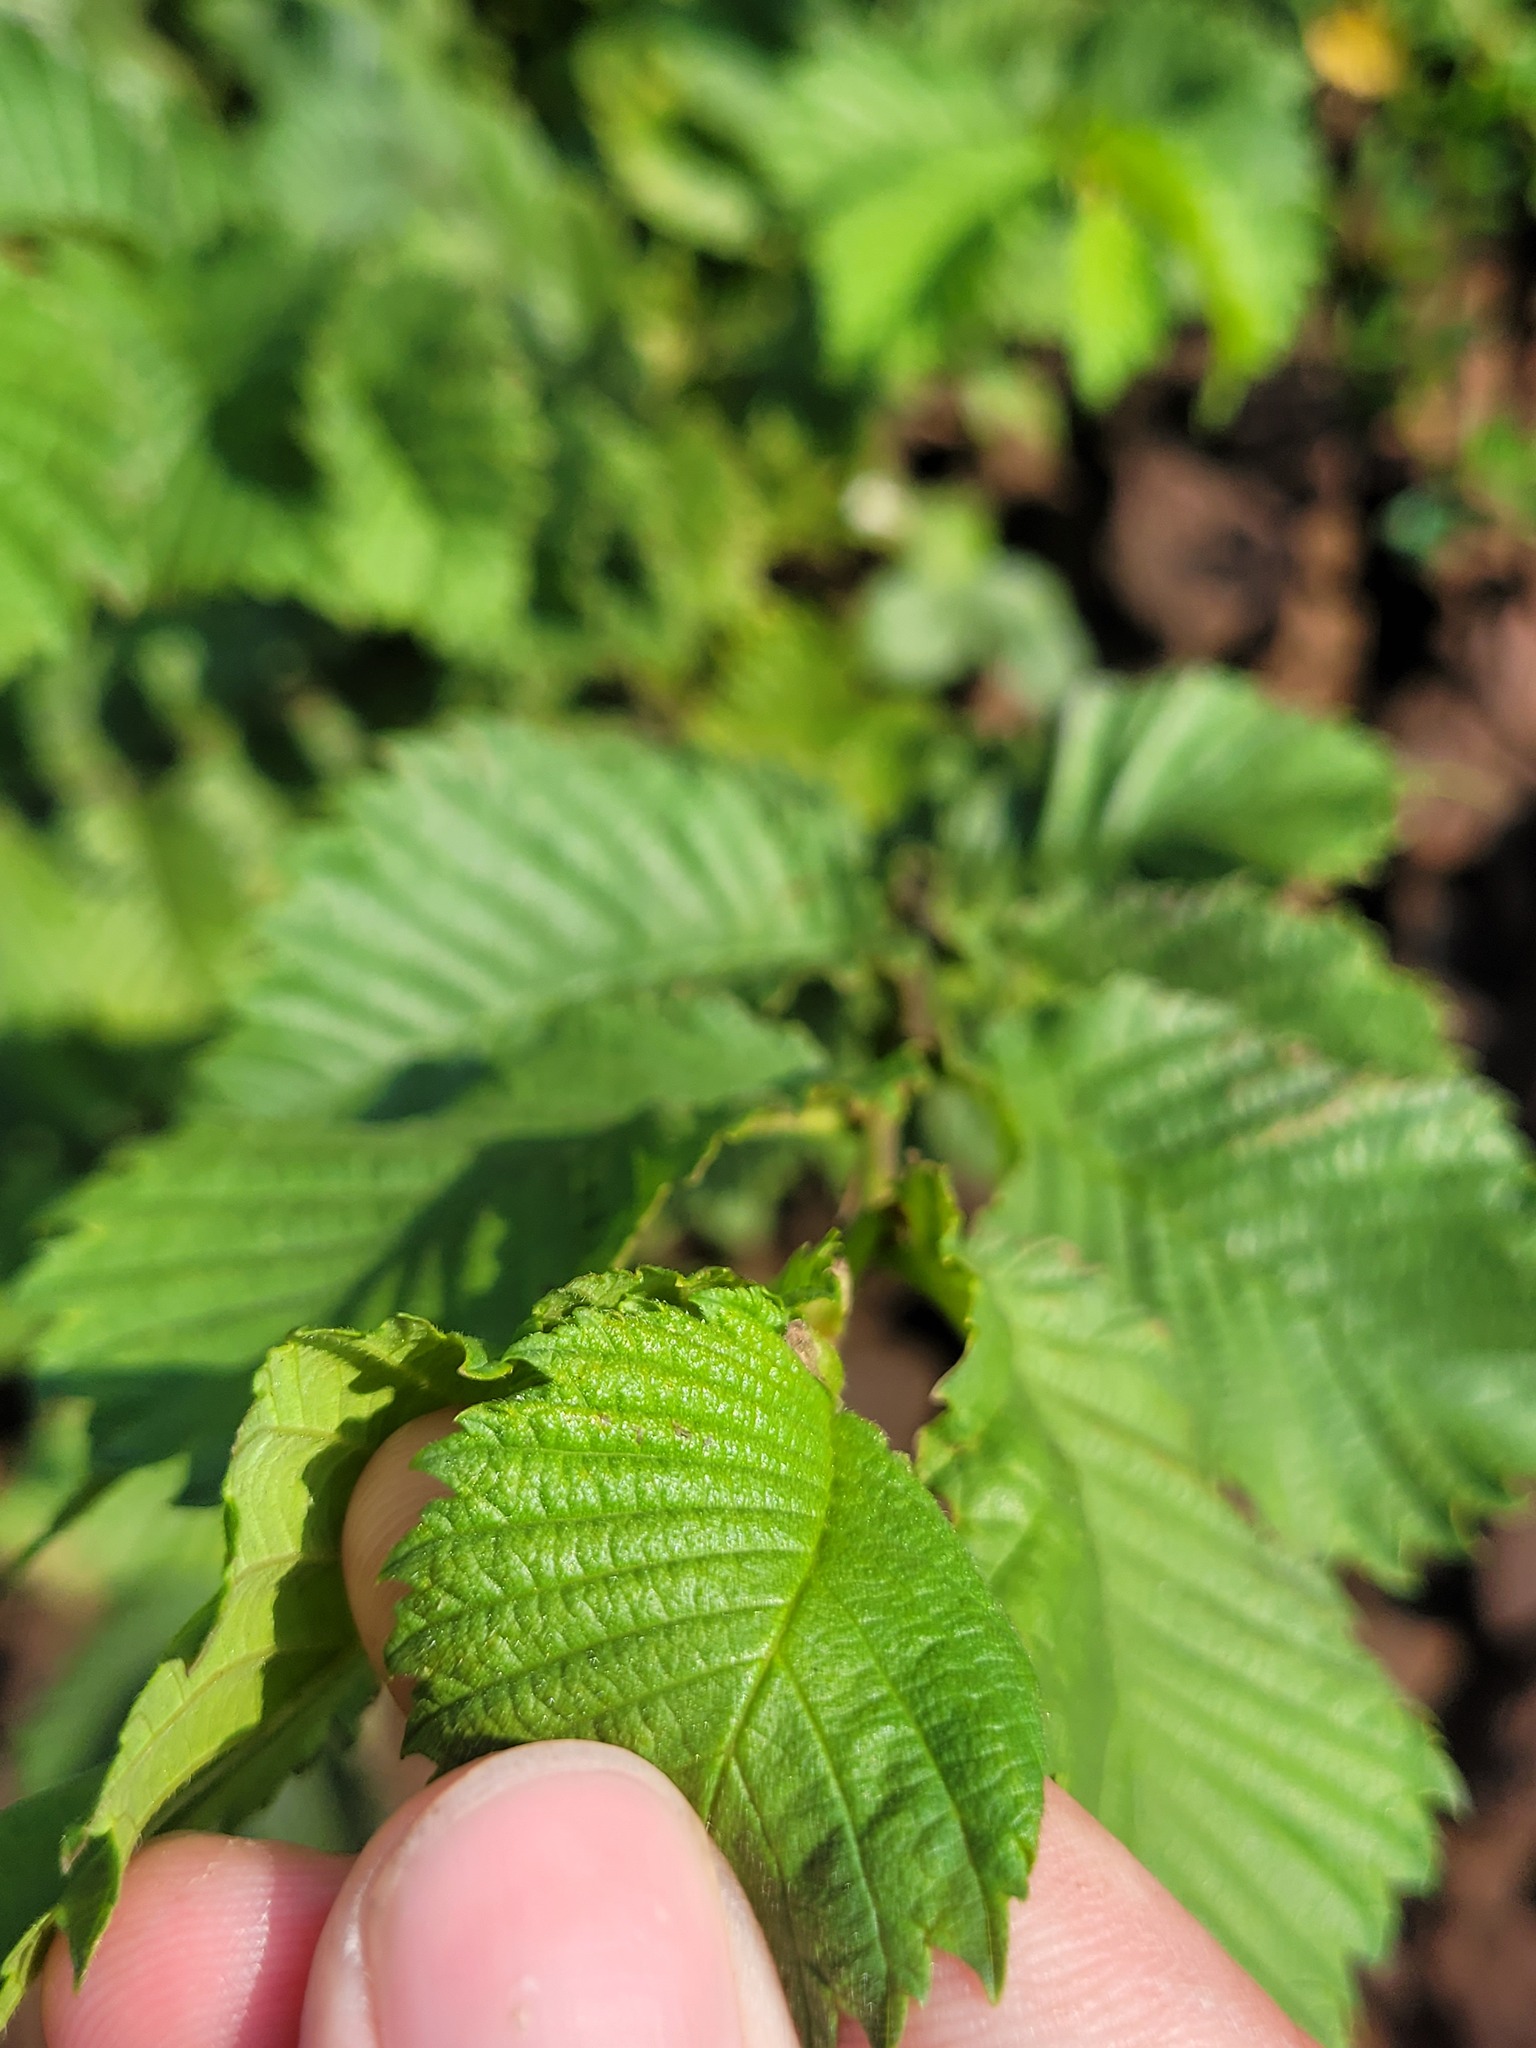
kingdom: Plantae
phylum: Tracheophyta
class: Magnoliopsida
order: Rosales
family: Ulmaceae
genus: Ulmus
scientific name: Ulmus laevis
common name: European white-elm
